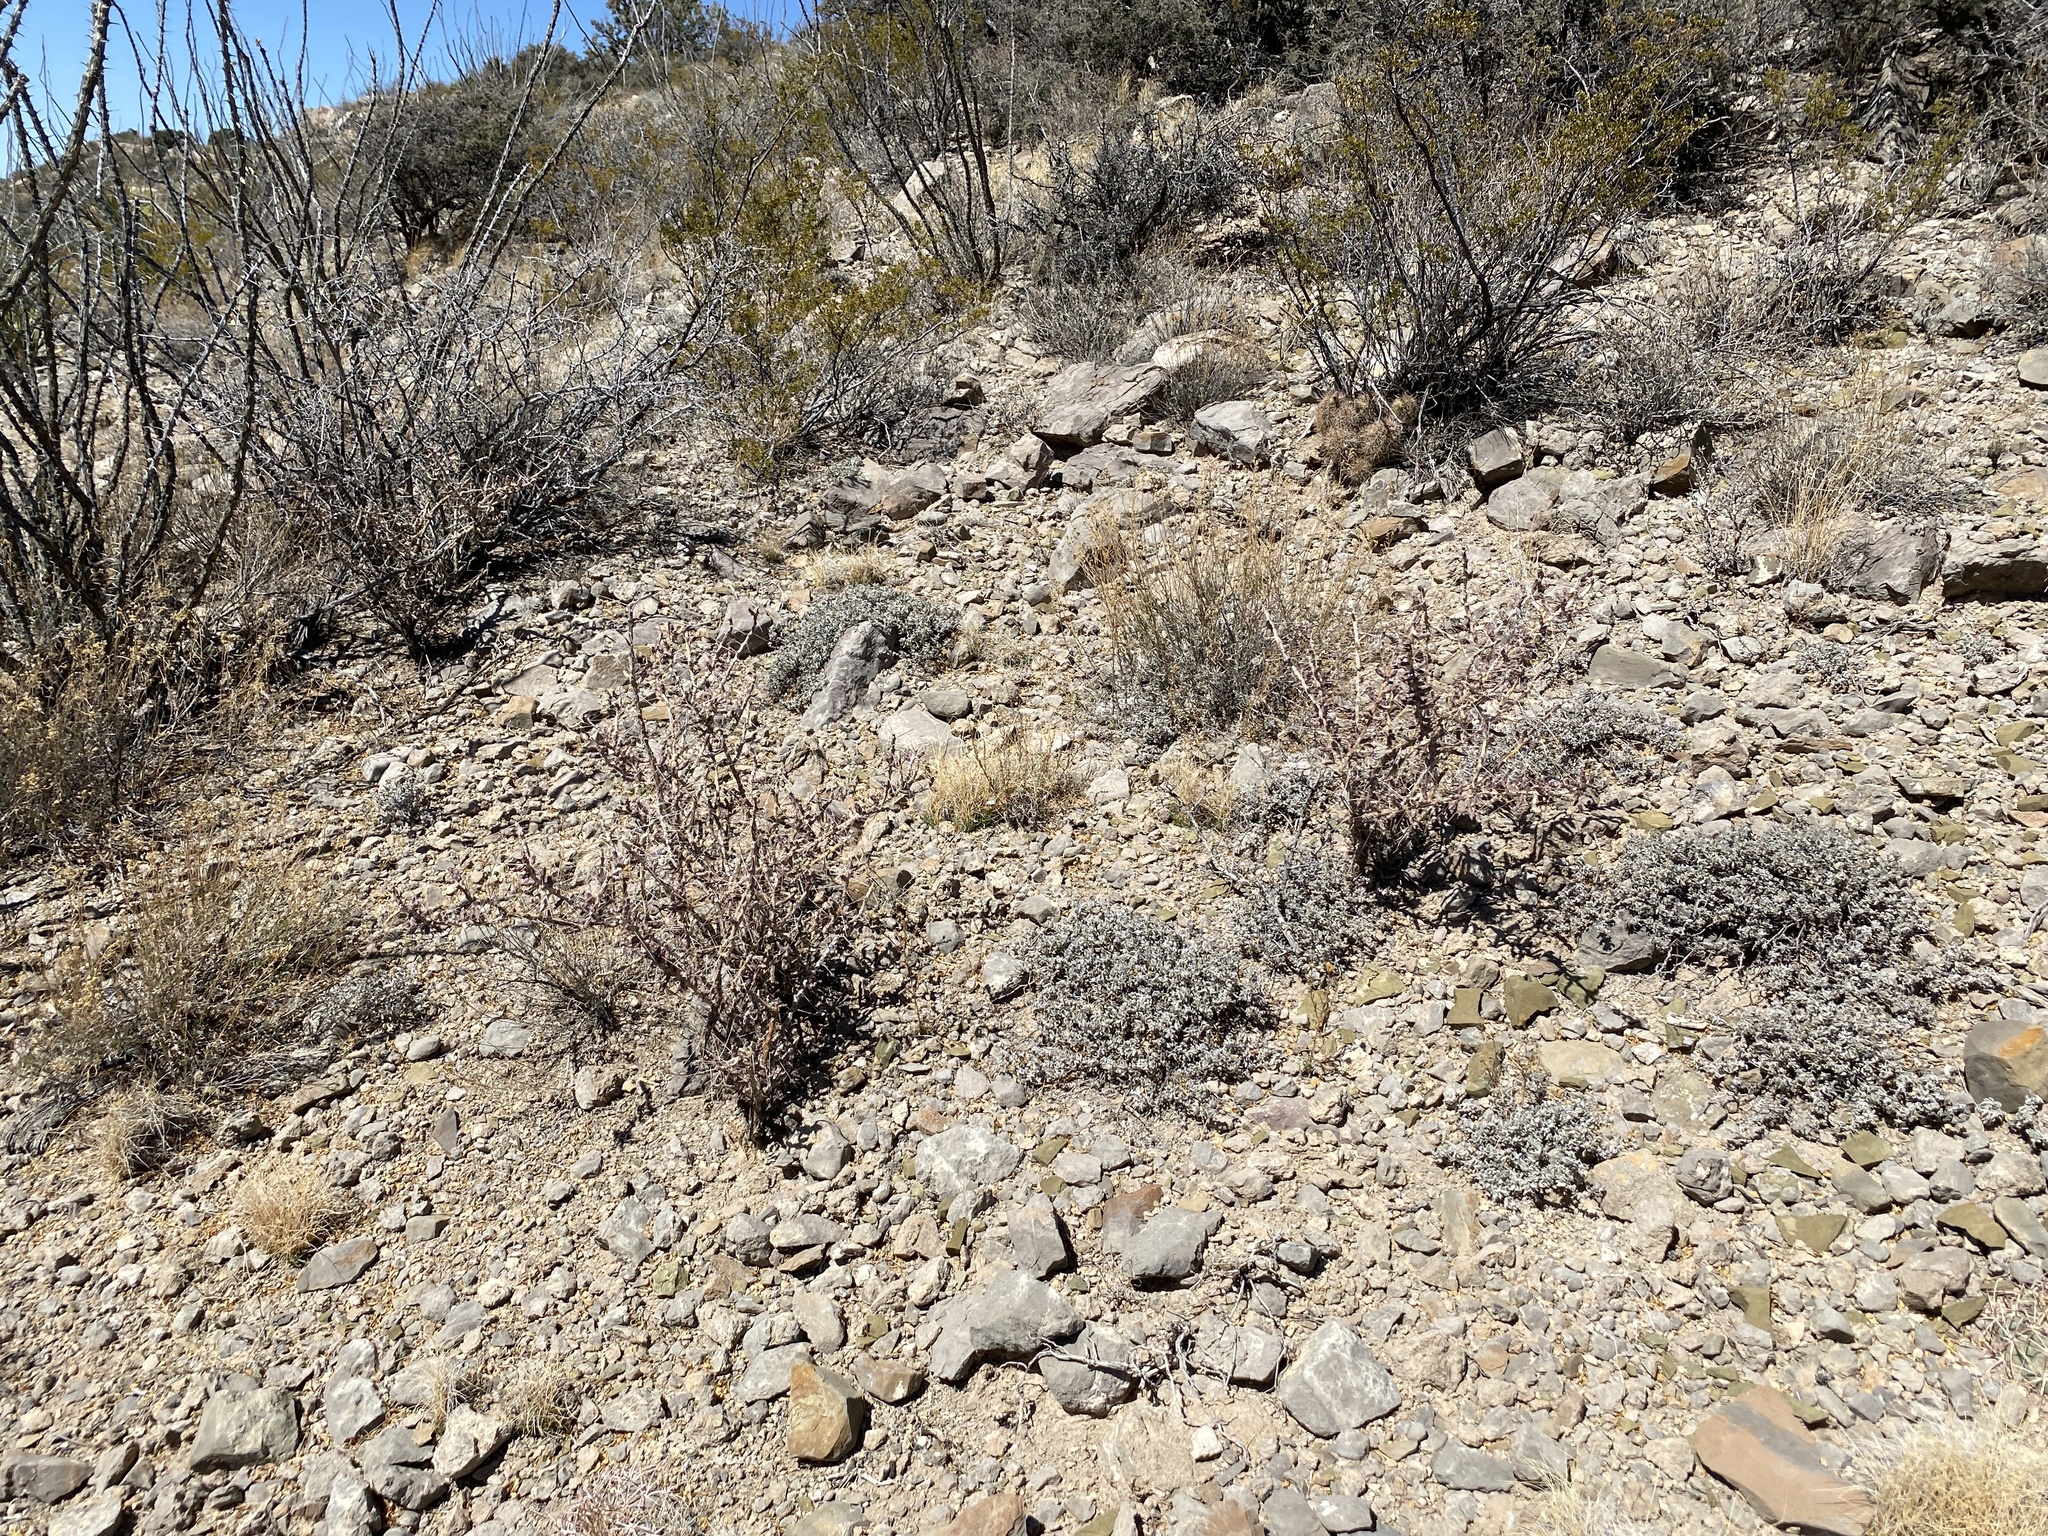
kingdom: Plantae
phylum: Tracheophyta
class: Magnoliopsida
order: Caryophyllales
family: Cactaceae
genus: Cylindropuntia
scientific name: Cylindropuntia leptocaulis
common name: Christmas cactus
